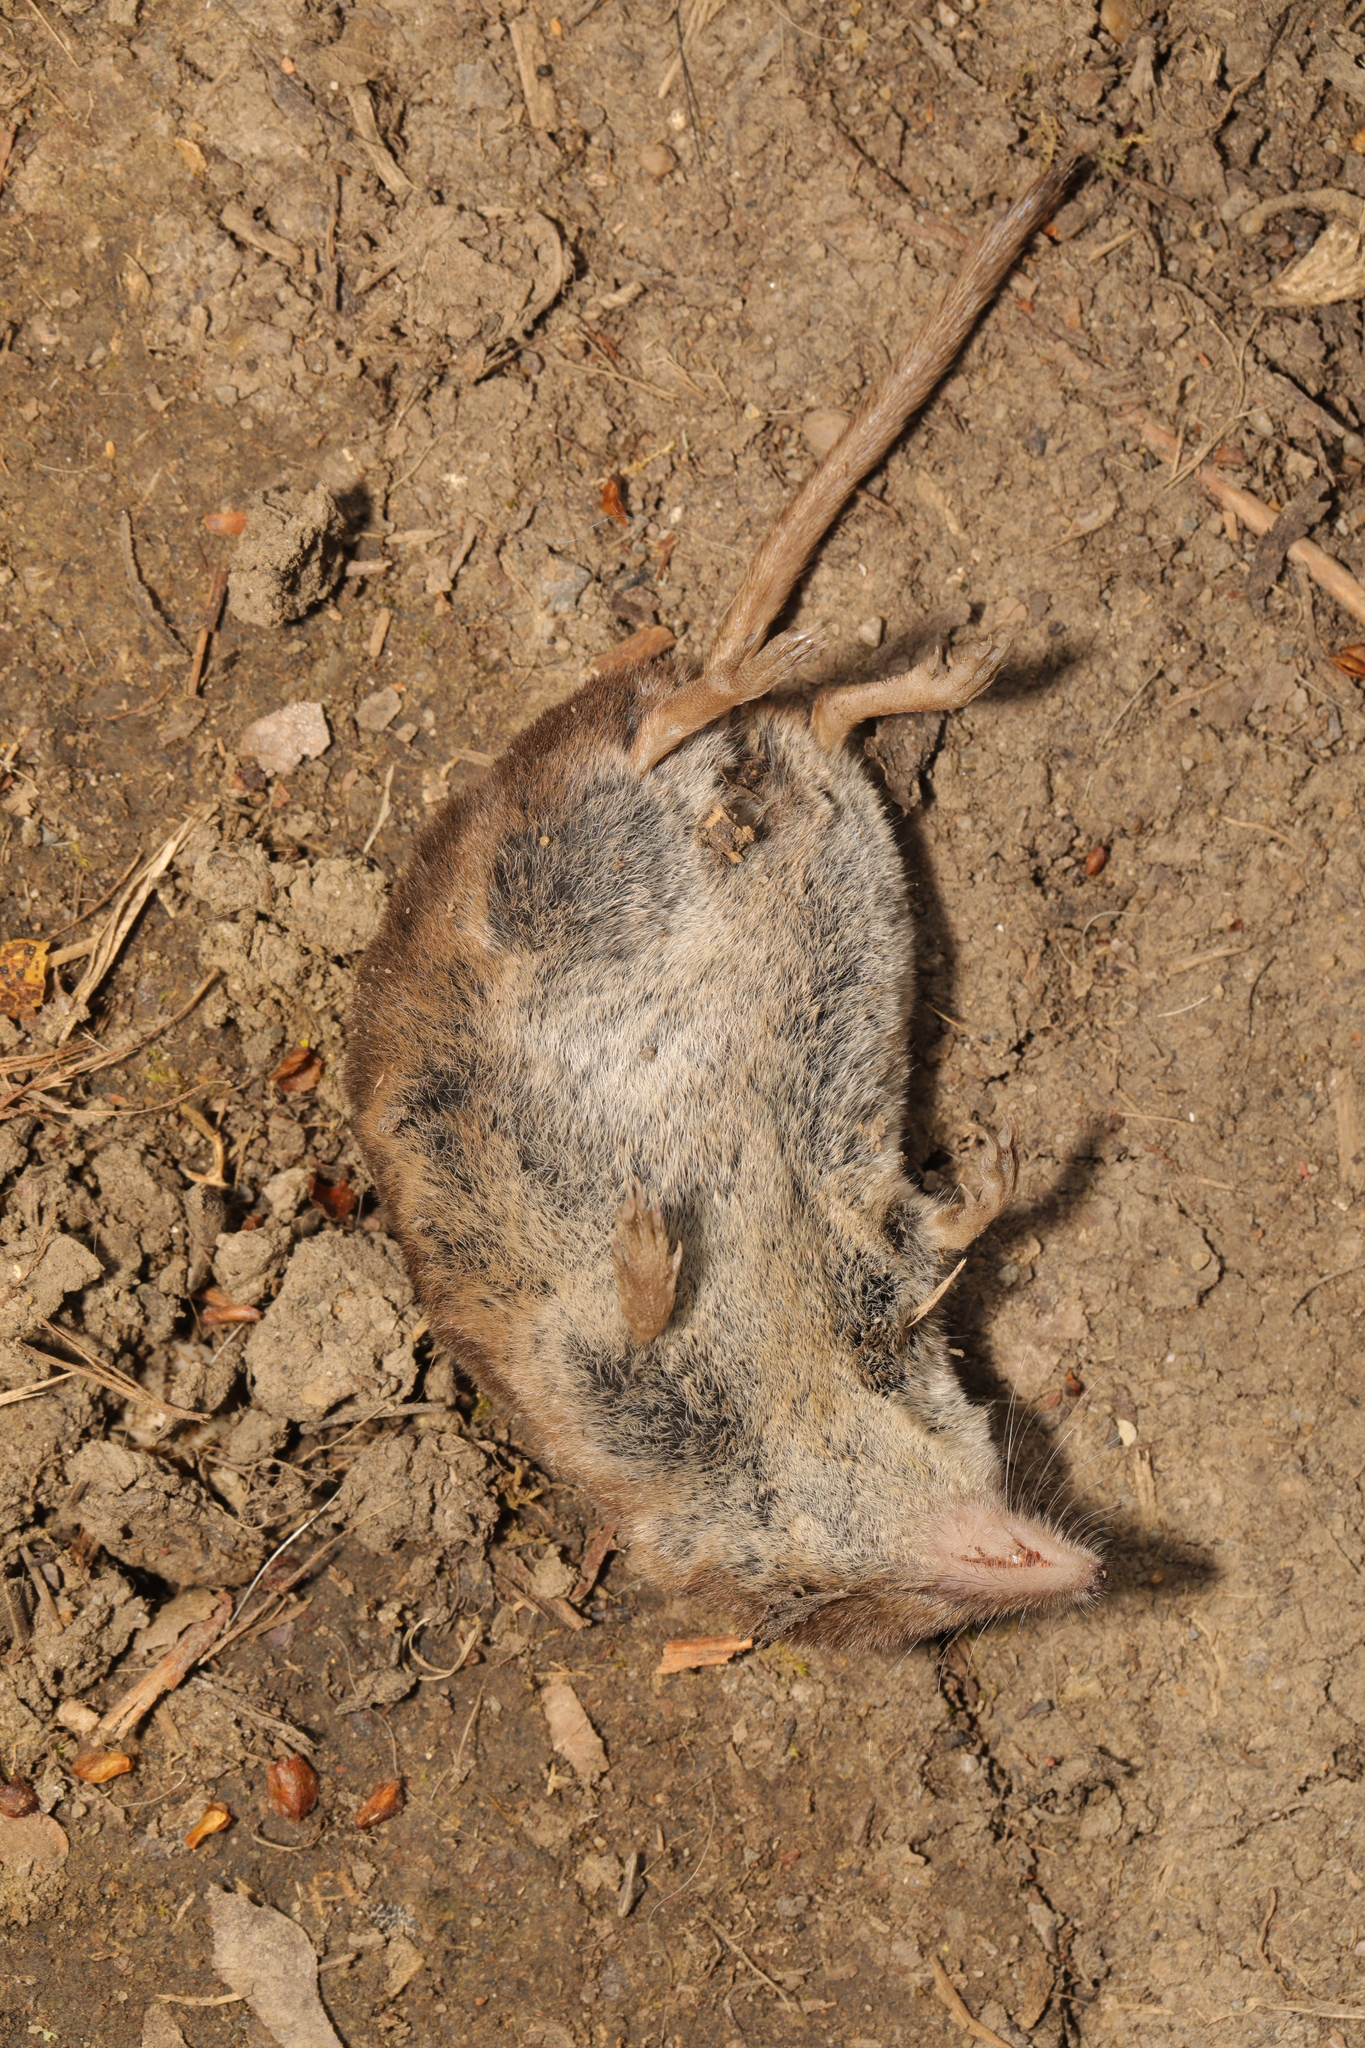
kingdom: Animalia
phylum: Chordata
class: Mammalia
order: Soricomorpha
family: Soricidae
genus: Sorex
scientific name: Sorex araneus
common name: Common shrew
